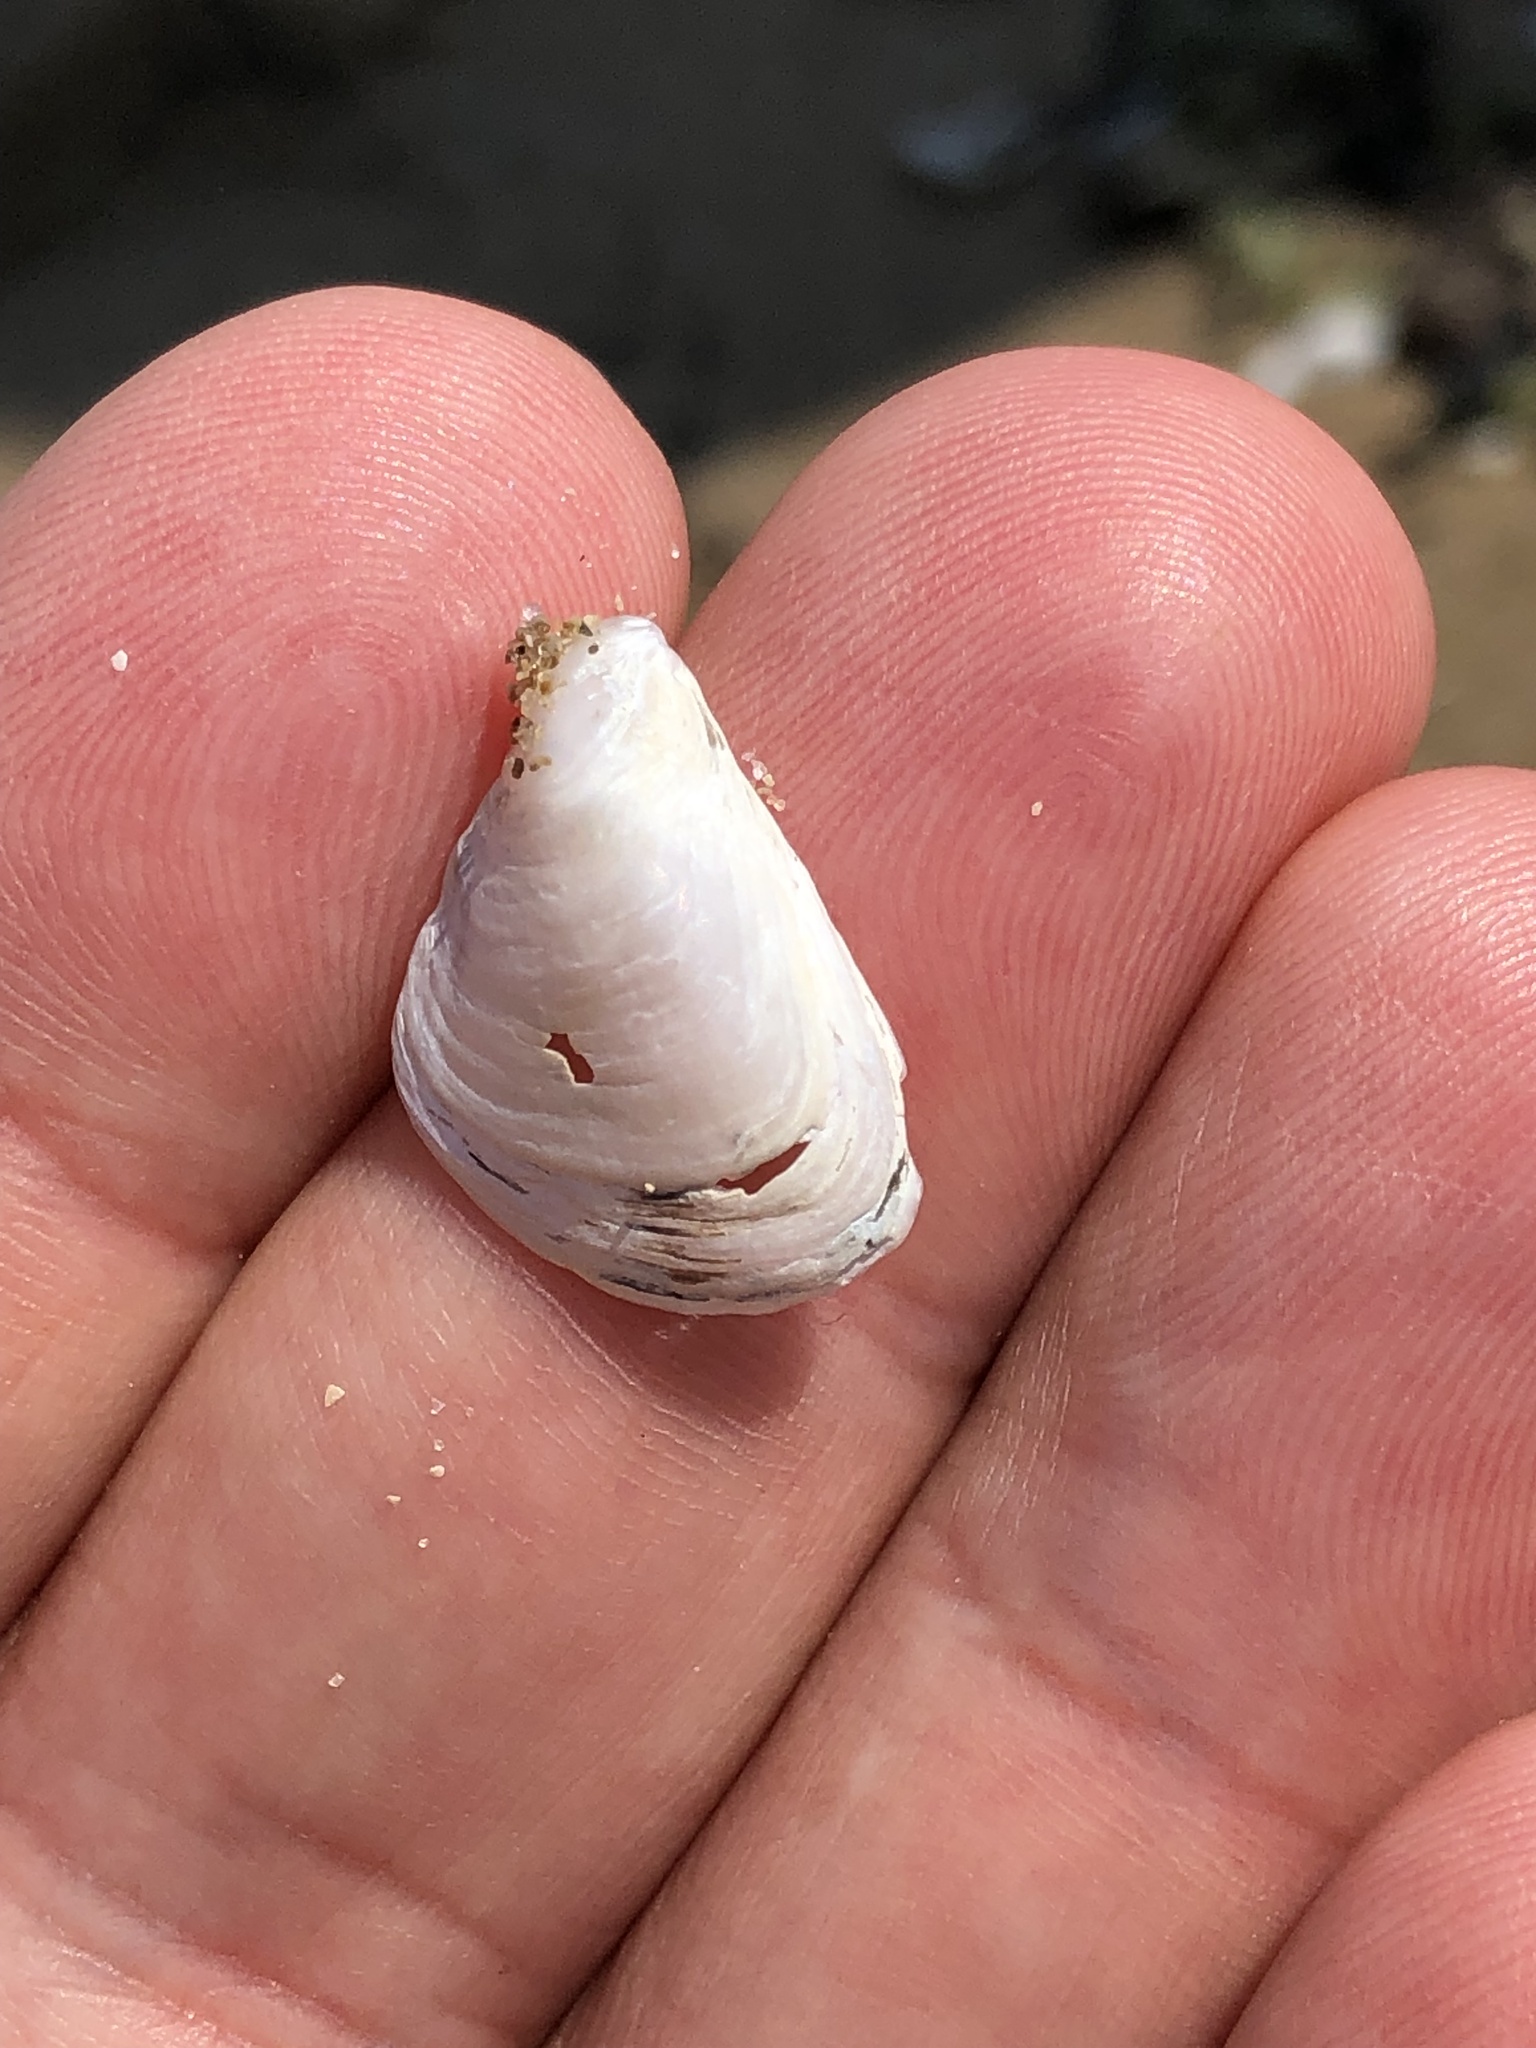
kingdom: Animalia
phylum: Mollusca
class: Bivalvia
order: Myida
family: Dreissenidae
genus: Dreissena
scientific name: Dreissena bugensis
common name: Quagga mussel
